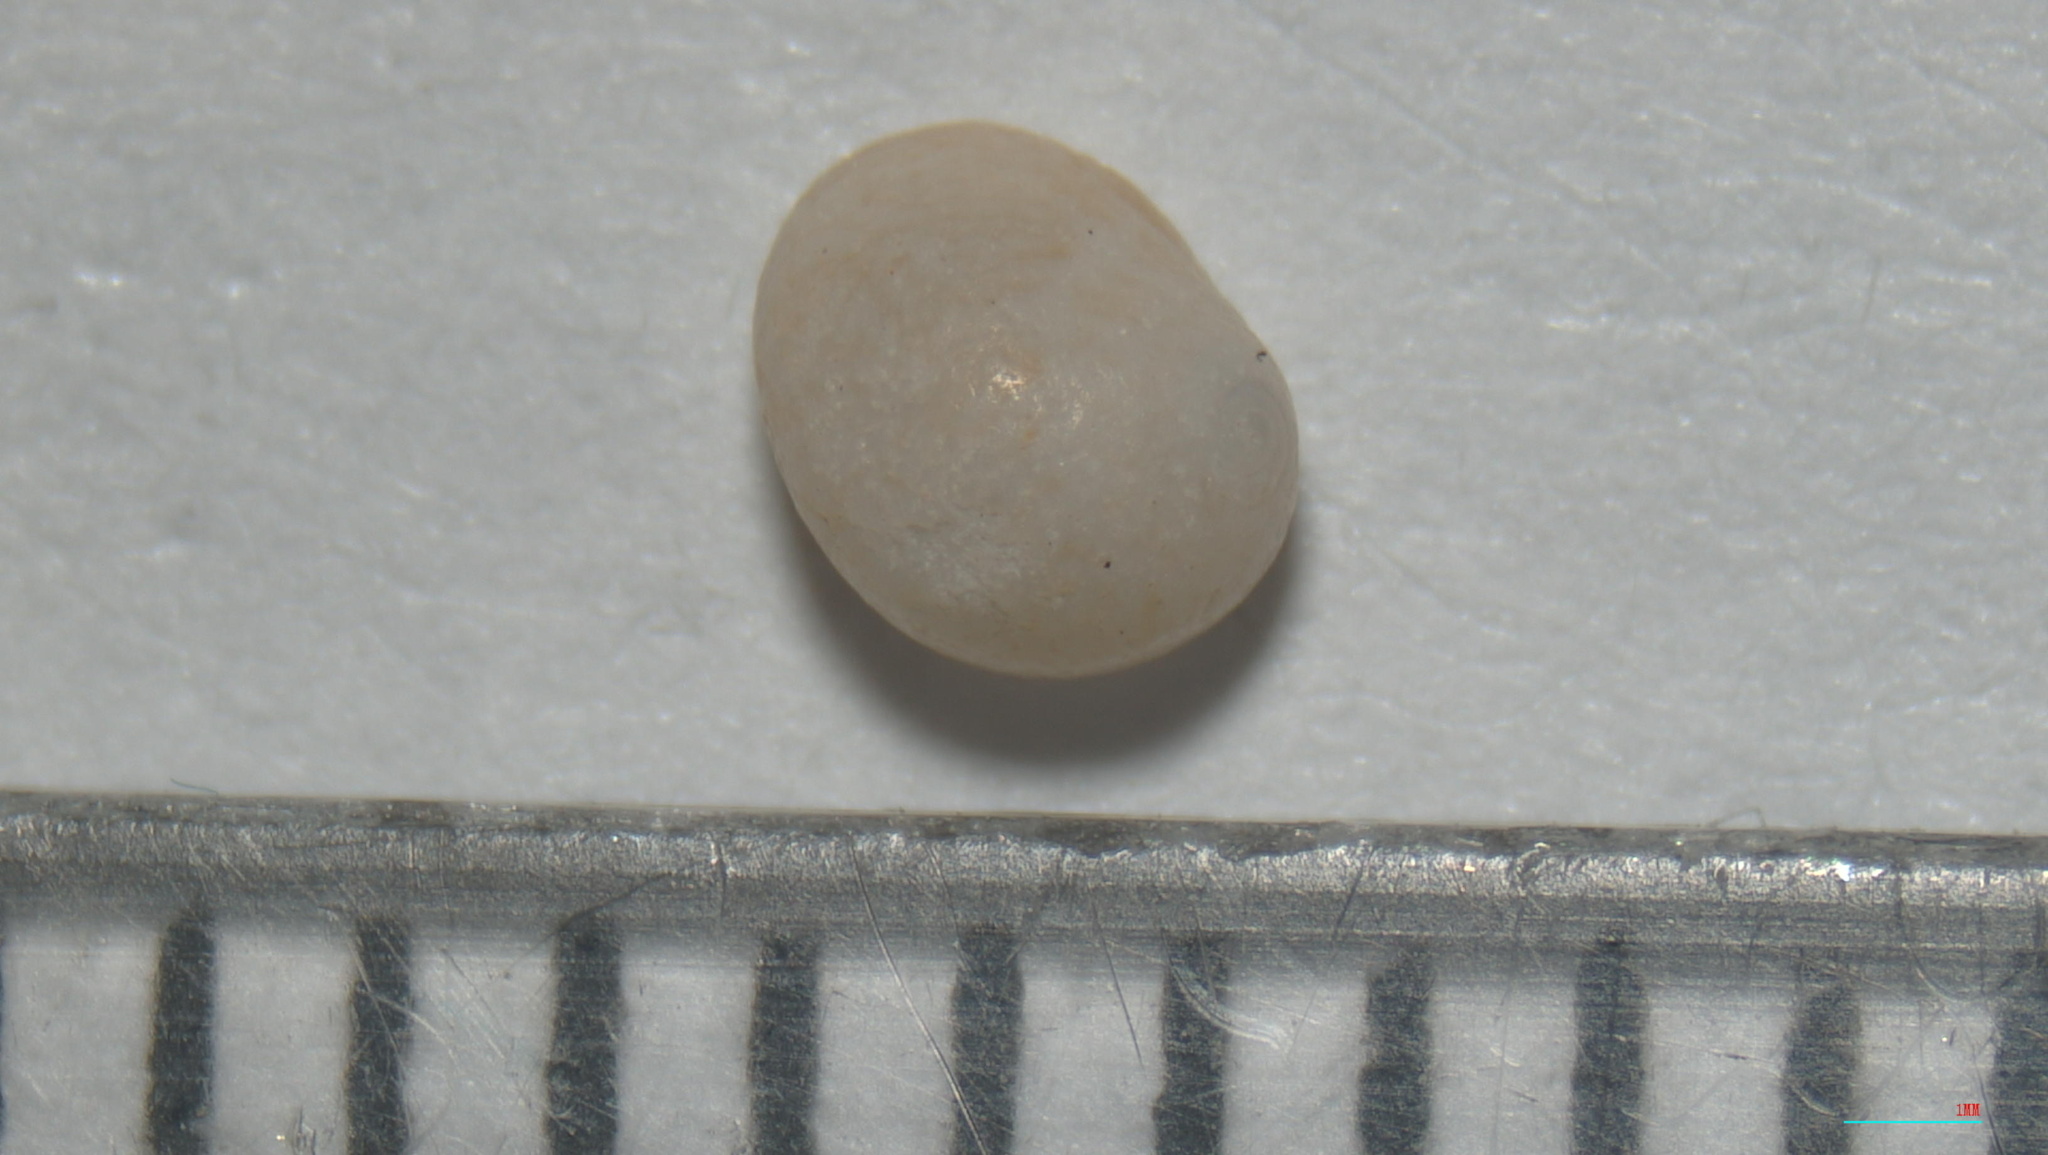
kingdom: Animalia
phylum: Mollusca
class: Gastropoda
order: Littorinimorpha
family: Naticidae
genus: Naticarius
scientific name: Naticarius canrena
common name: Colorful moonsnail
